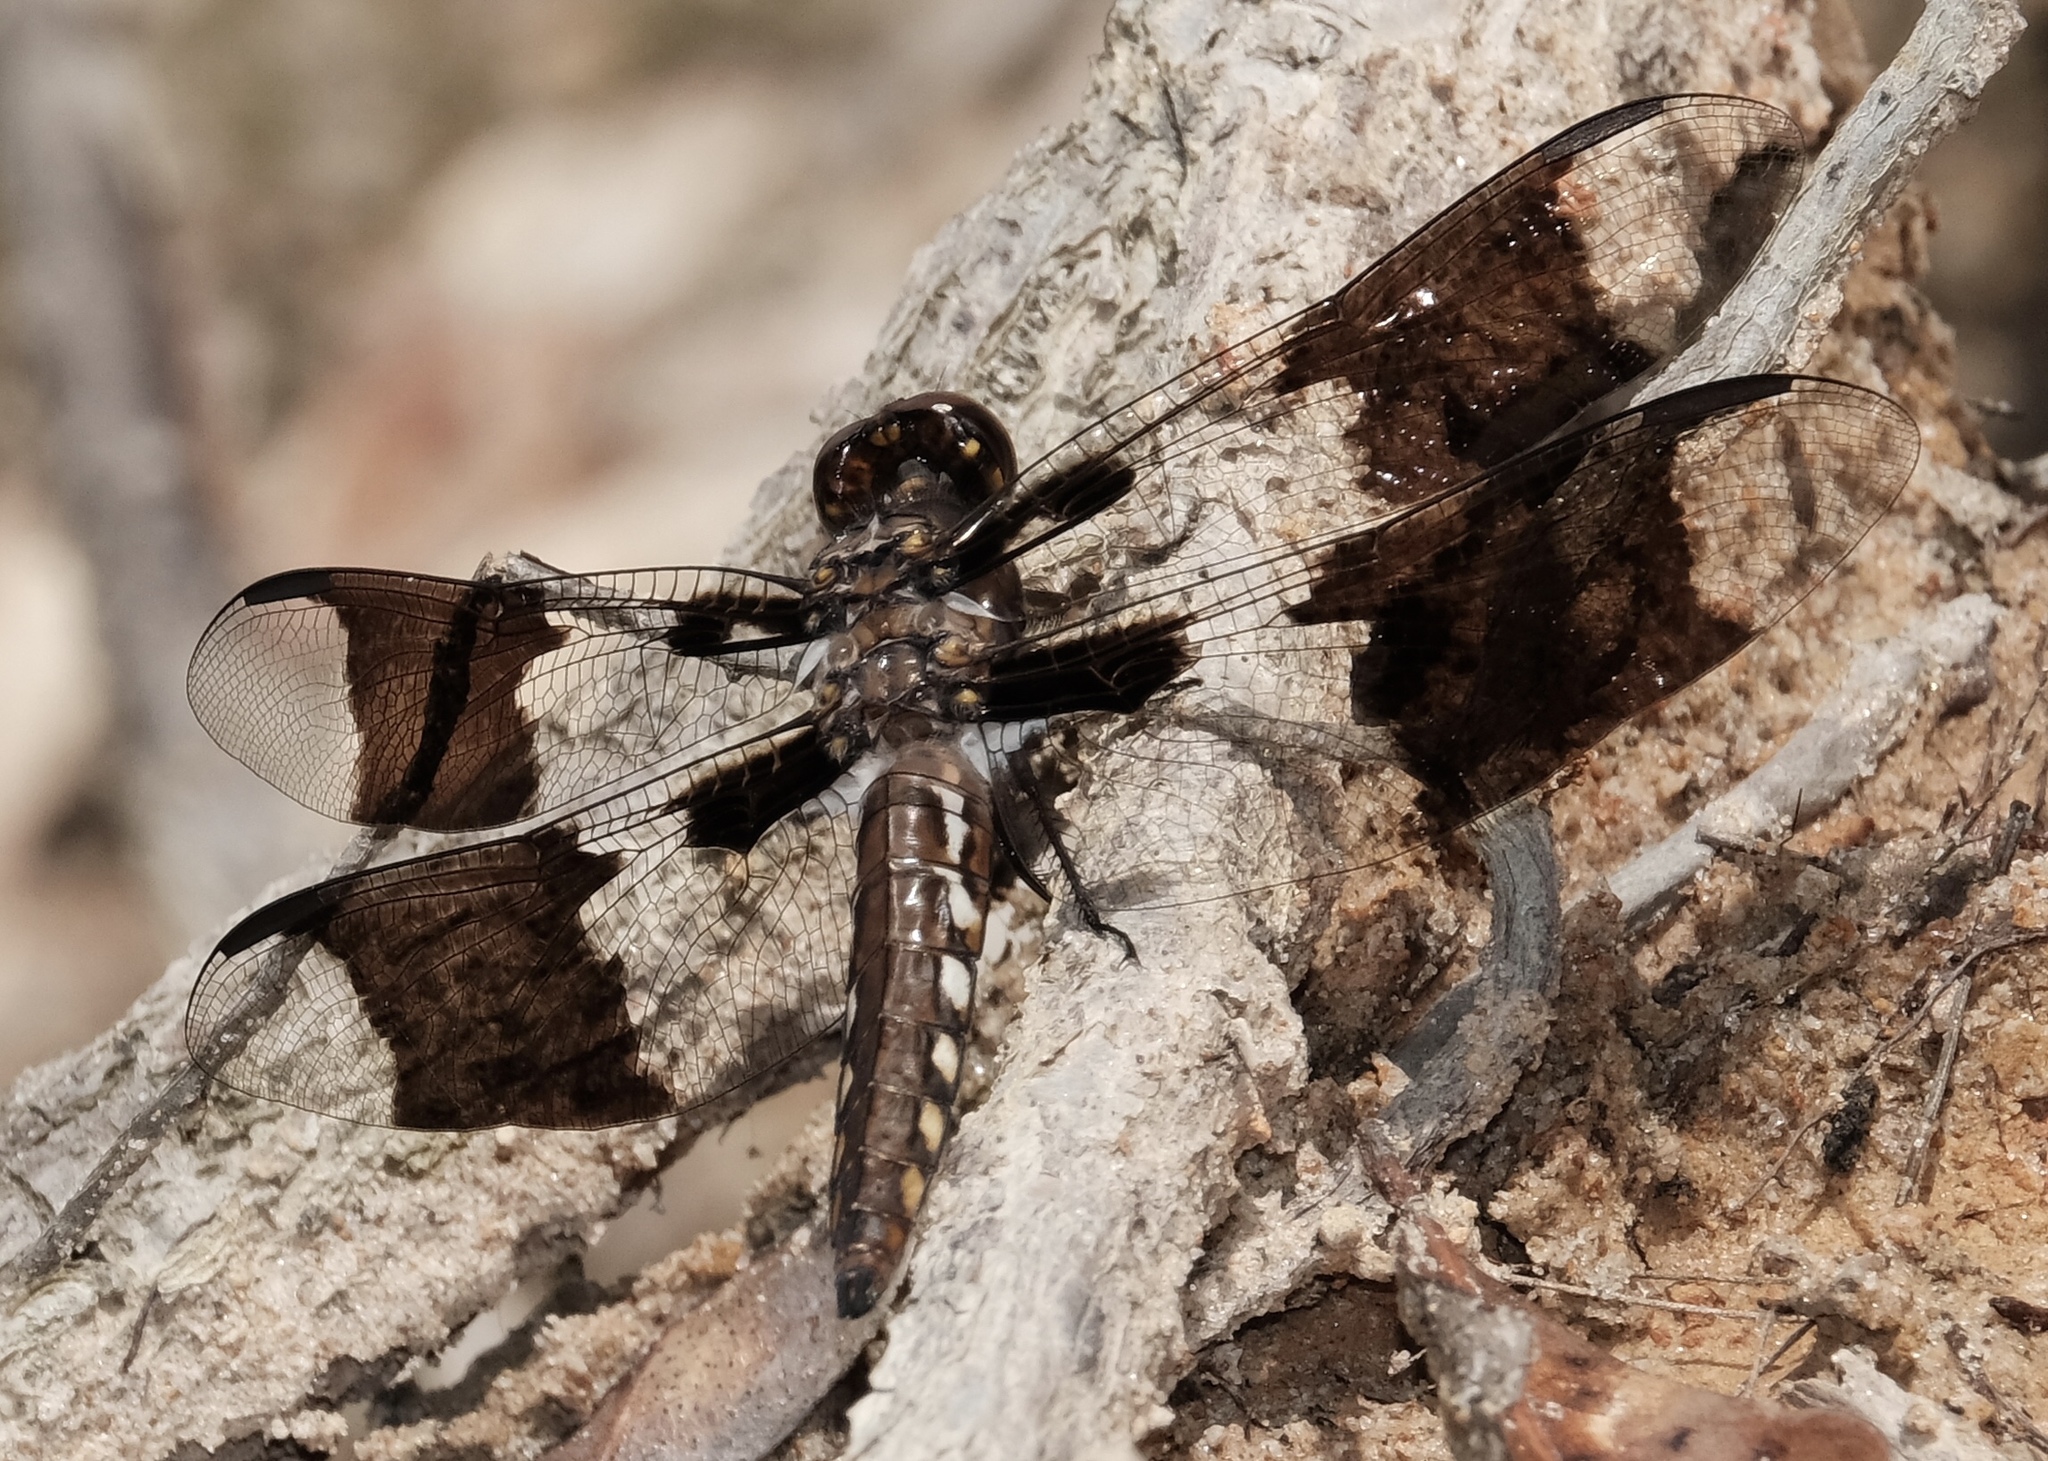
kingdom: Animalia
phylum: Arthropoda
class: Insecta
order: Odonata
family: Libellulidae
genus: Plathemis
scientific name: Plathemis lydia
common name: Common whitetail
